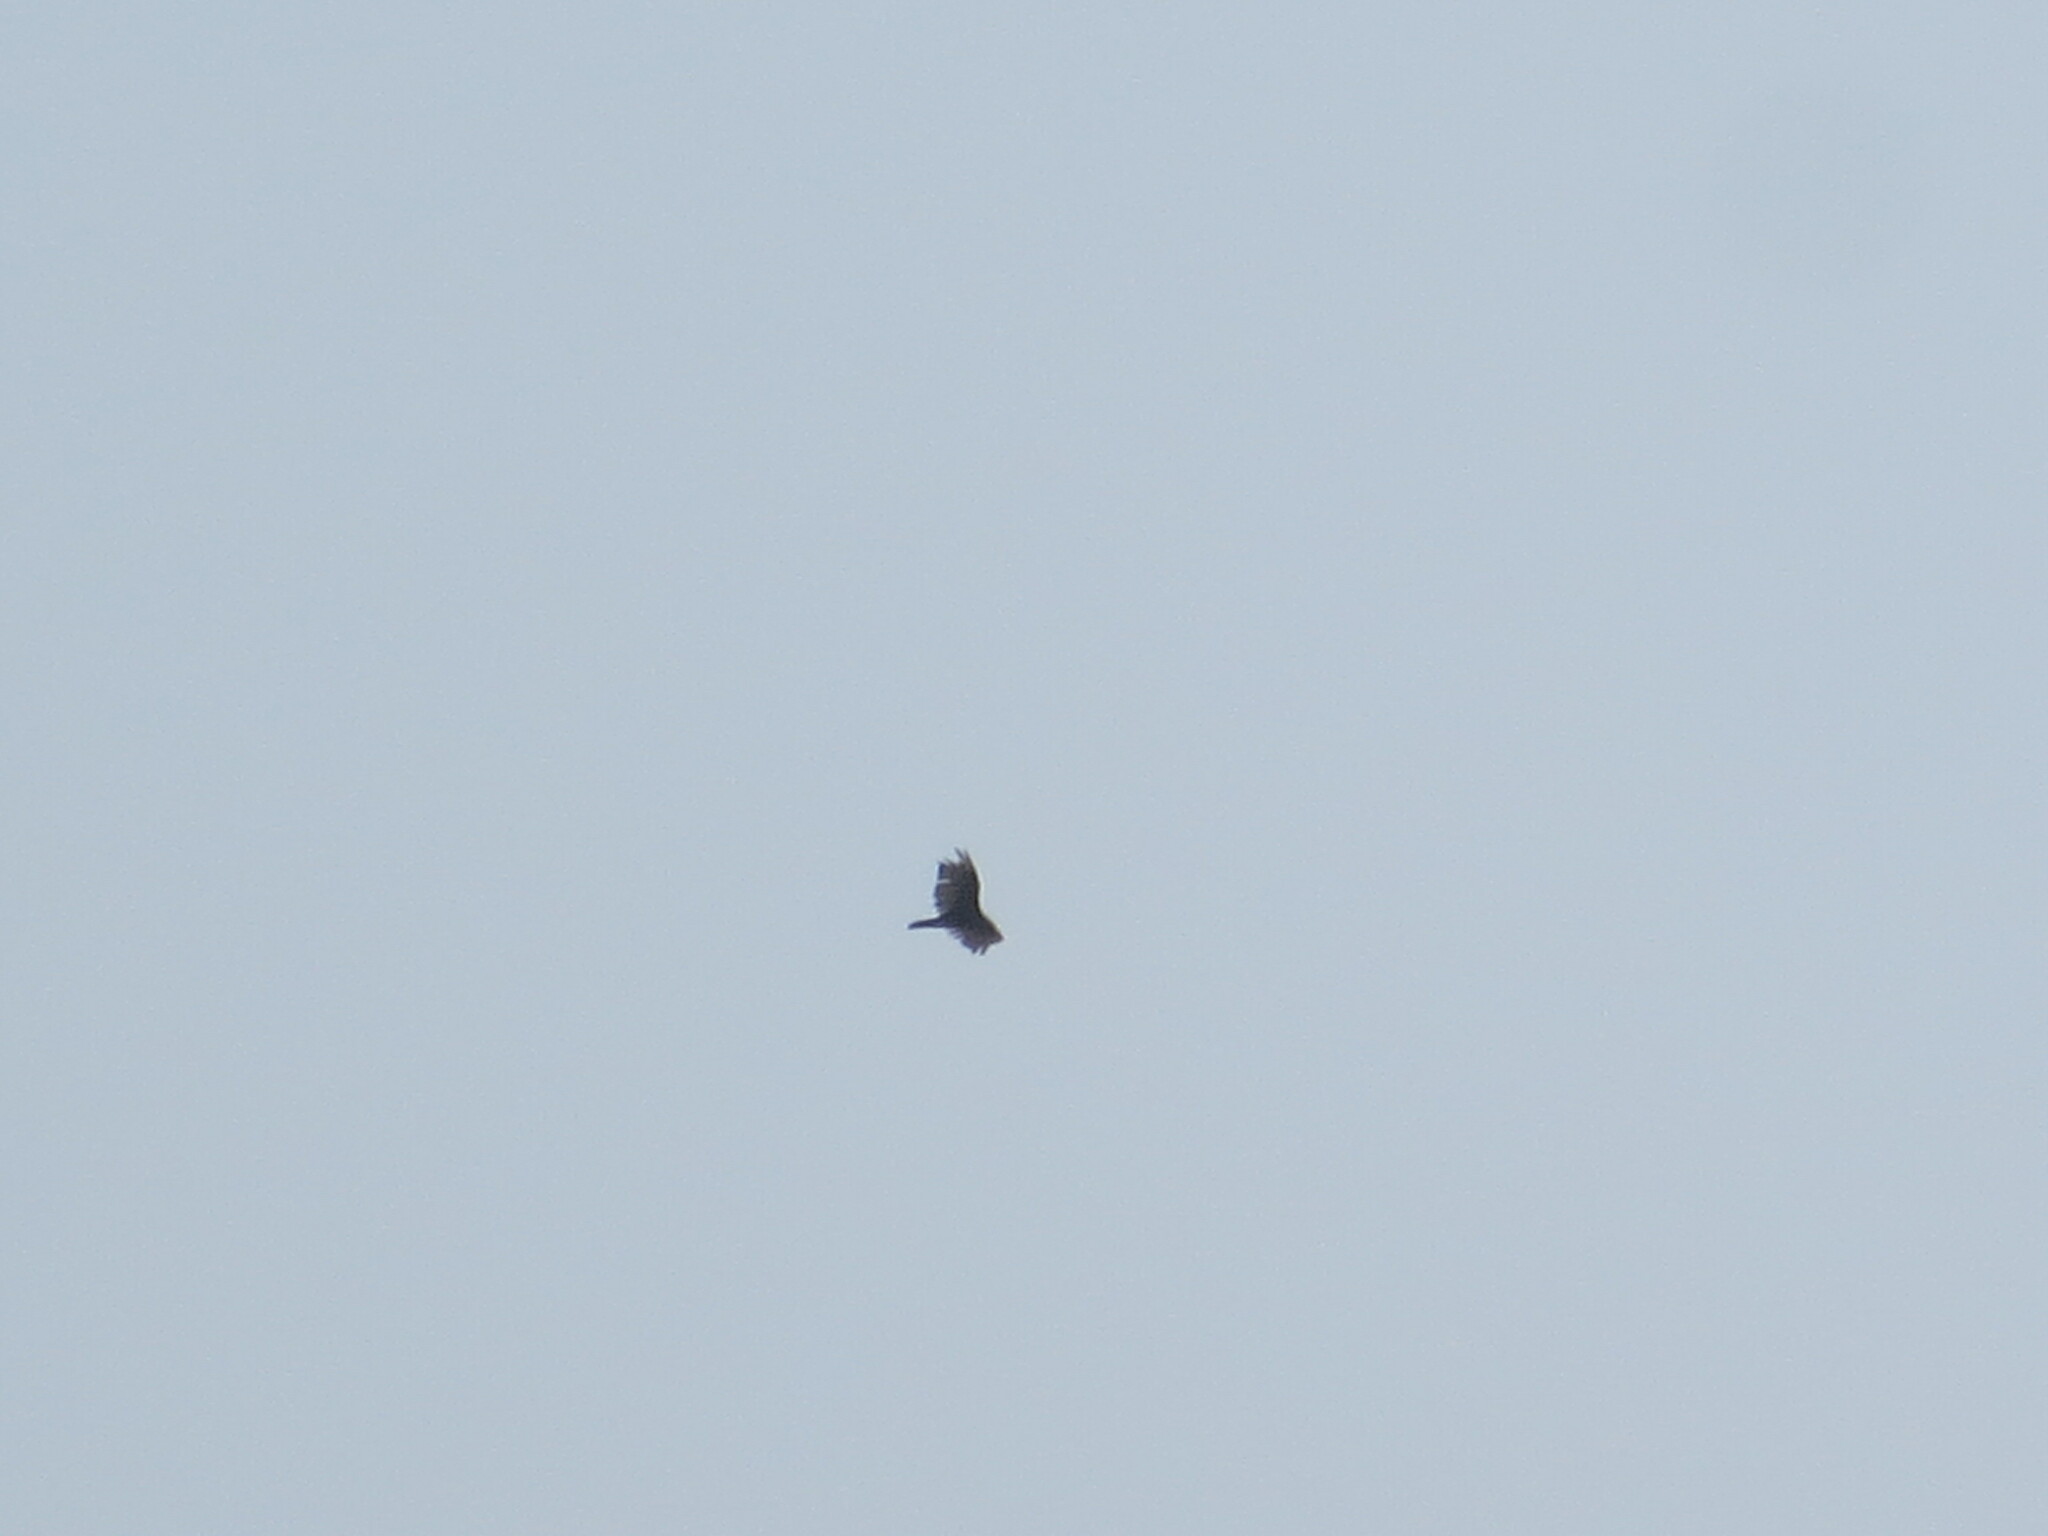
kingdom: Animalia
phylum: Chordata
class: Aves
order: Accipitriformes
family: Cathartidae
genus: Cathartes
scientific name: Cathartes aura
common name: Turkey vulture
